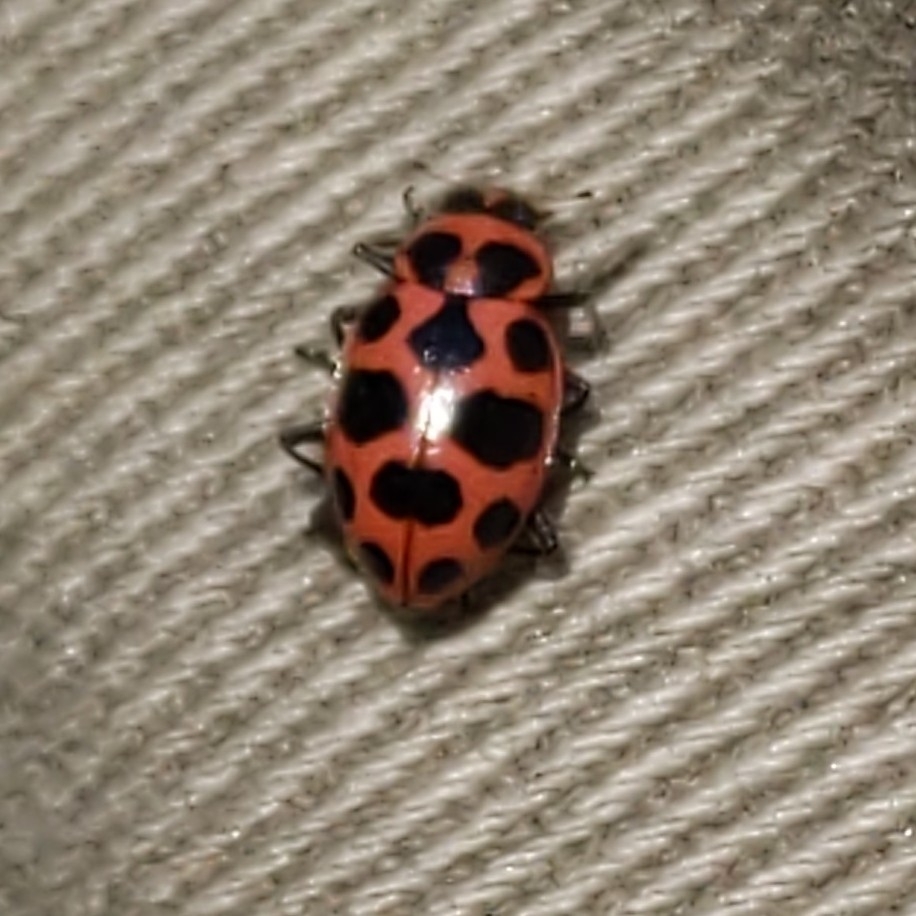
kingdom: Animalia
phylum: Arthropoda
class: Insecta
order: Coleoptera
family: Coccinellidae
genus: Coleomegilla
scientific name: Coleomegilla maculata
